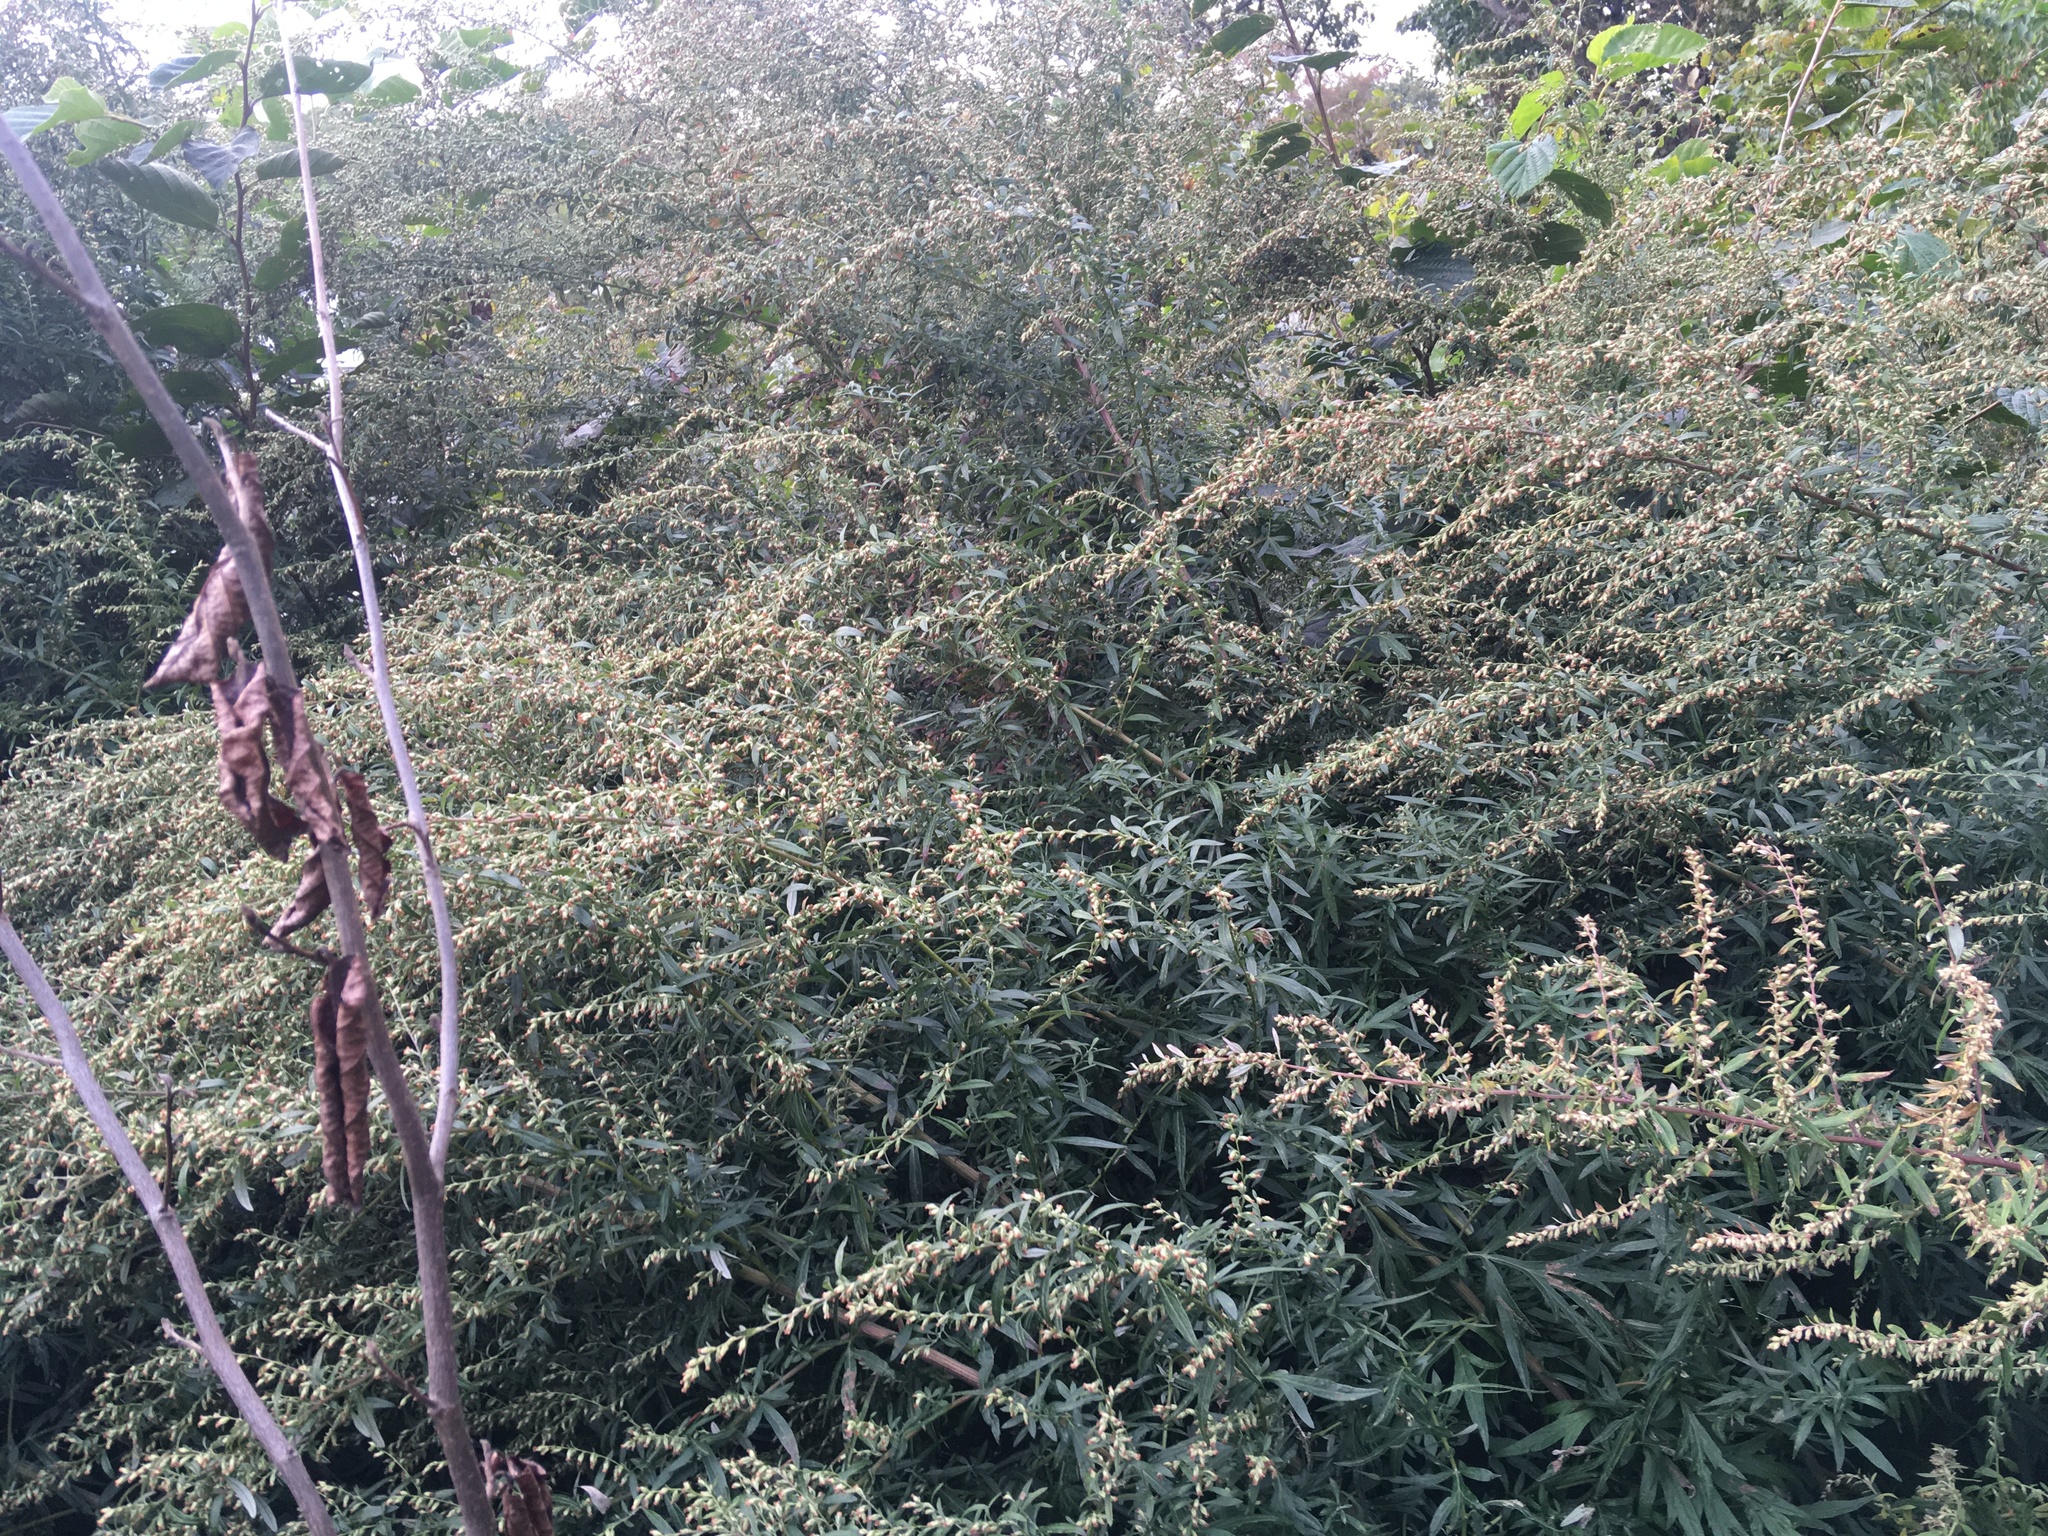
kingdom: Plantae
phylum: Tracheophyta
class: Magnoliopsida
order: Asterales
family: Asteraceae
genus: Artemisia
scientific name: Artemisia vulgaris
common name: Mugwort
